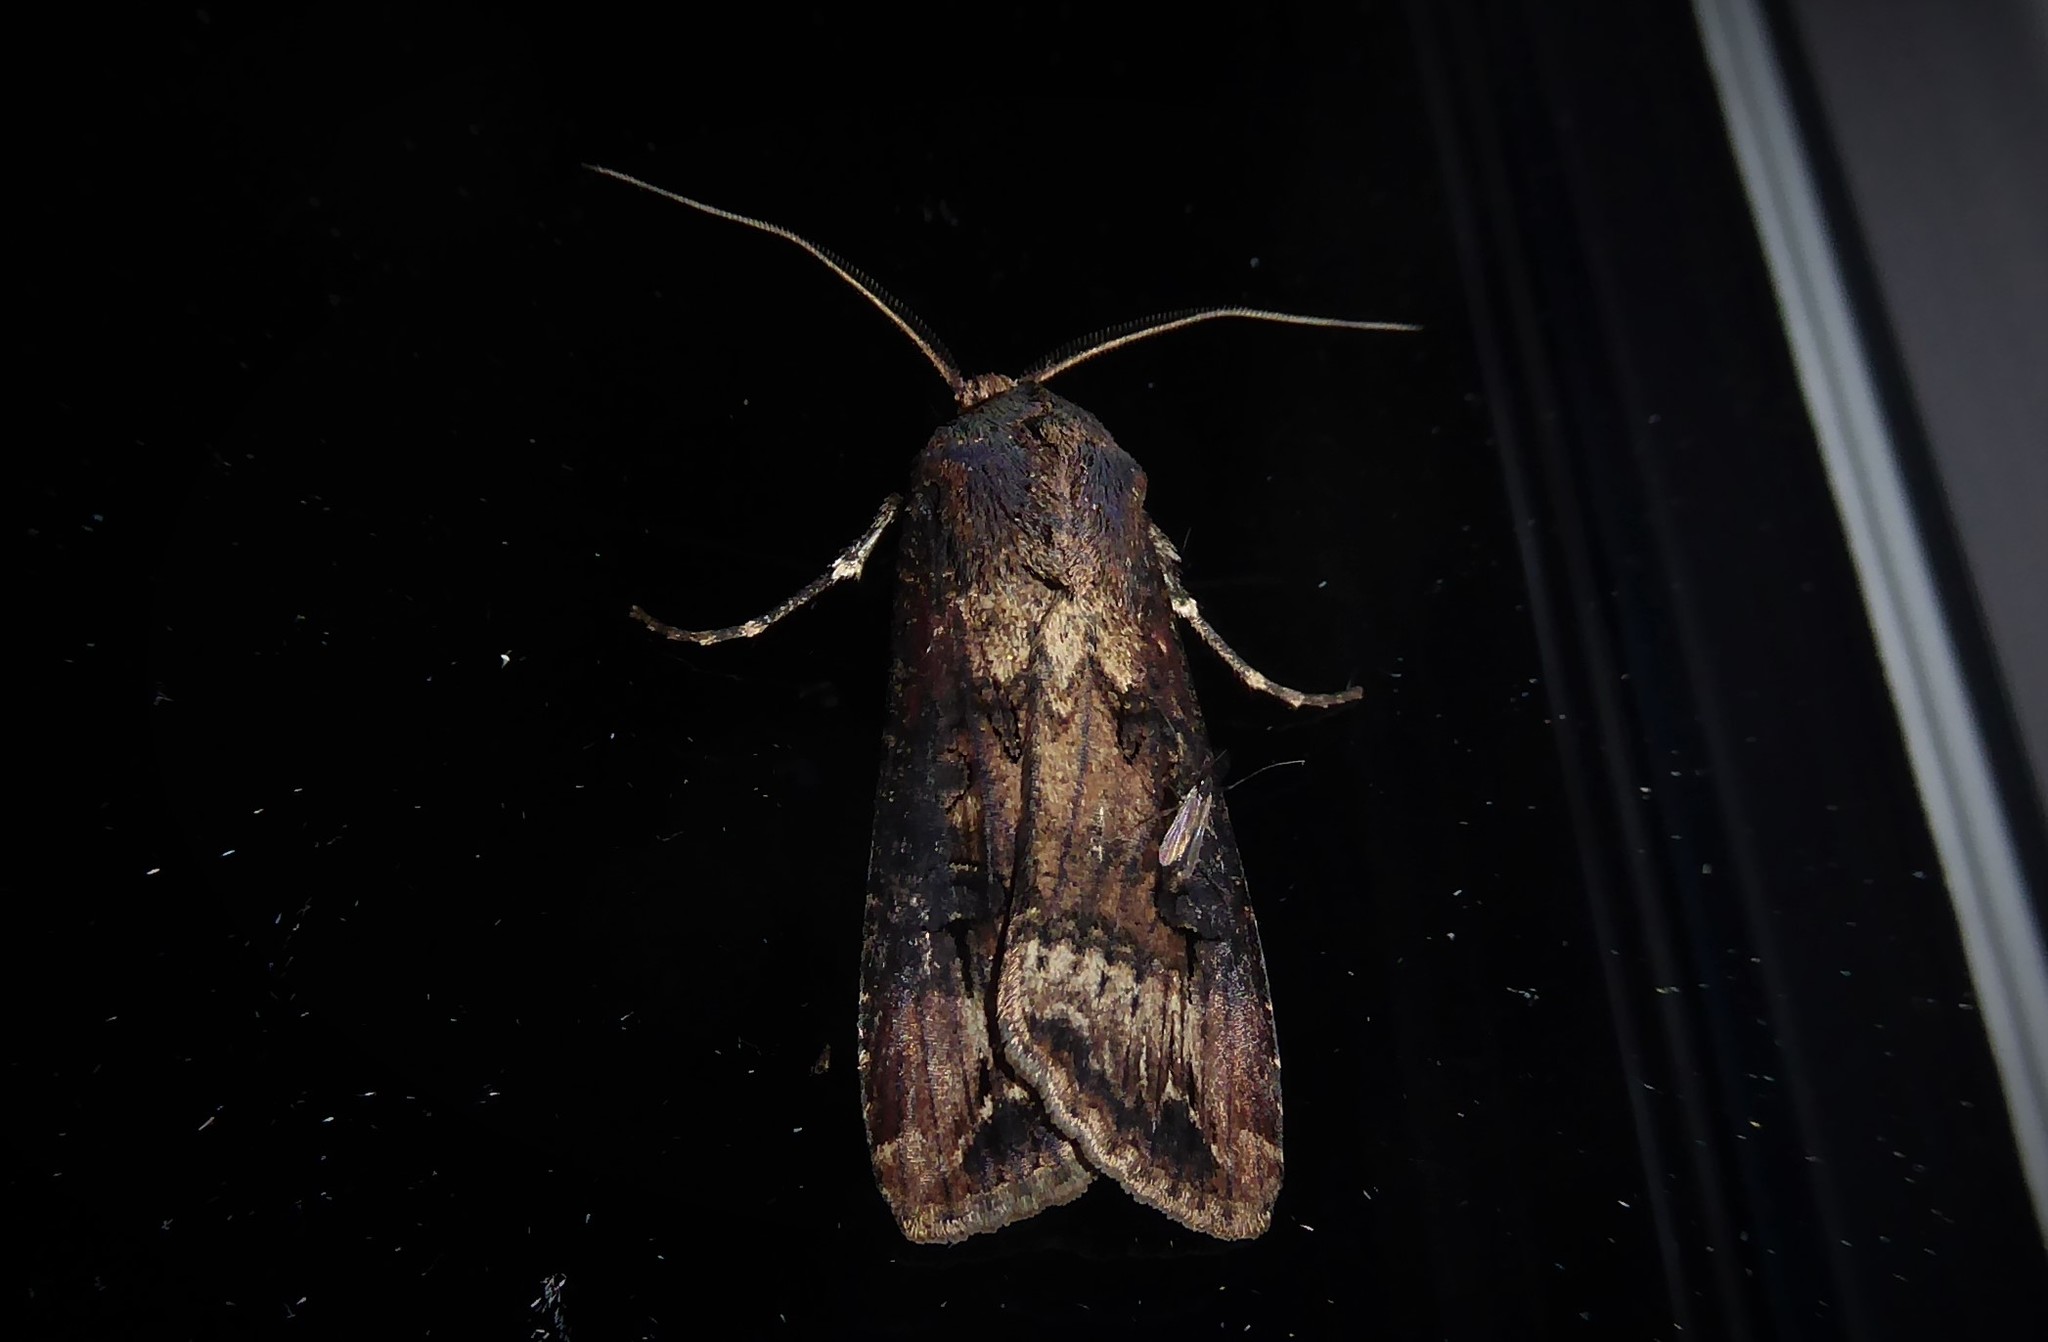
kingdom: Animalia
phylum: Arthropoda
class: Insecta
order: Lepidoptera
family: Noctuidae
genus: Agrotis
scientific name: Agrotis ipsilon
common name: Dark sword-grass
